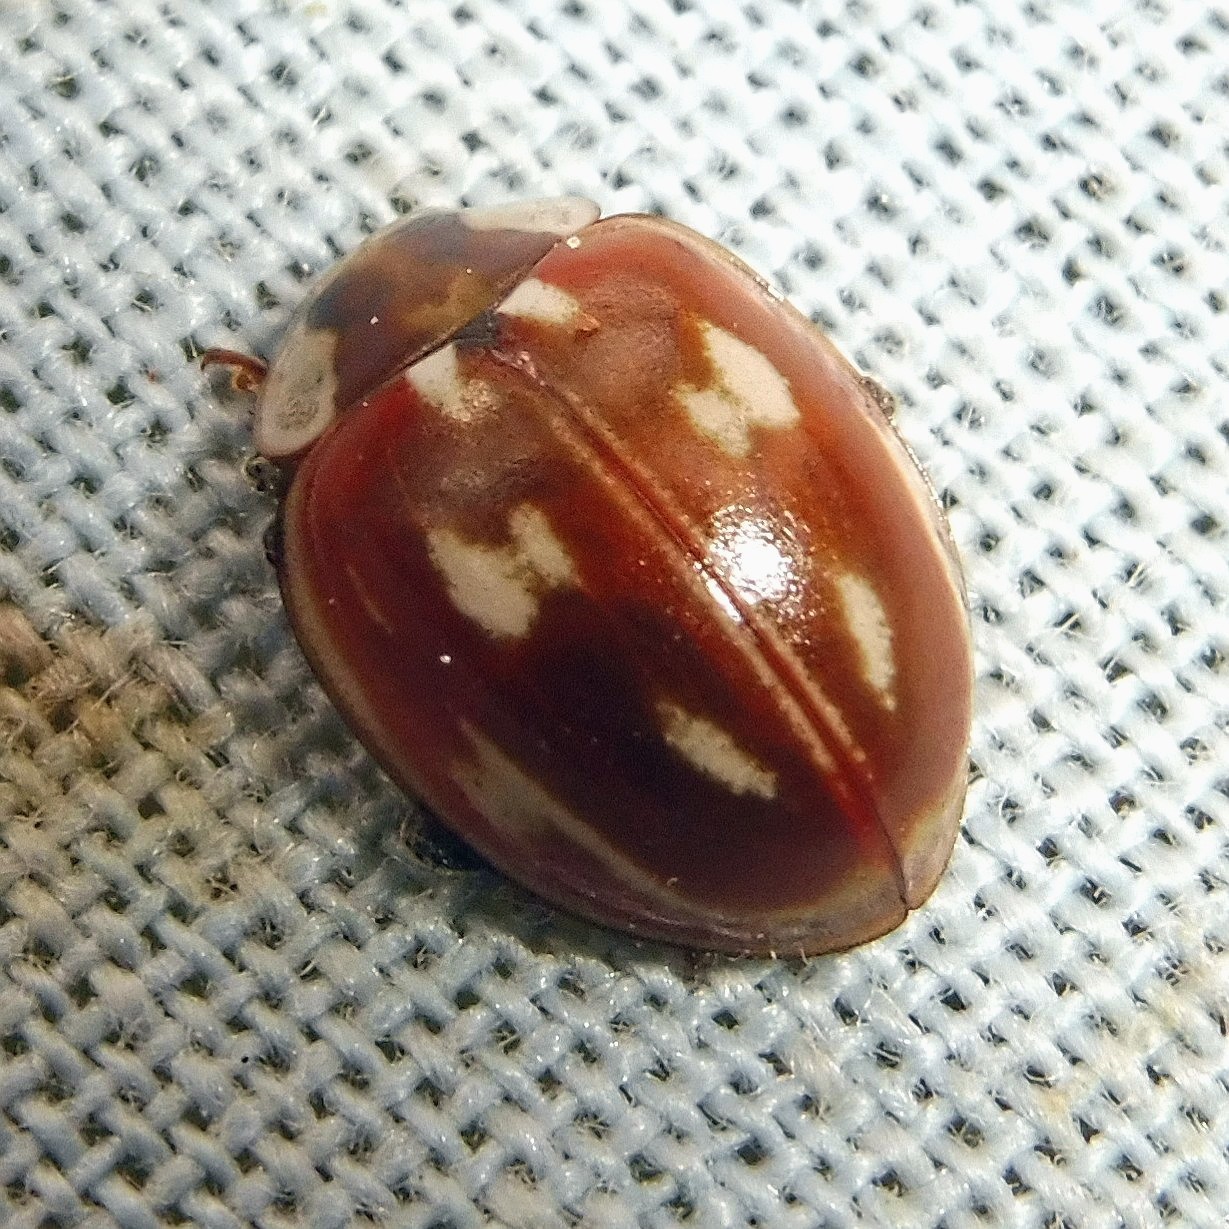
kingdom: Animalia
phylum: Arthropoda
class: Insecta
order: Coleoptera
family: Coccinellidae
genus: Myzia
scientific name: Myzia oblongoguttata
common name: Striped ladybird
